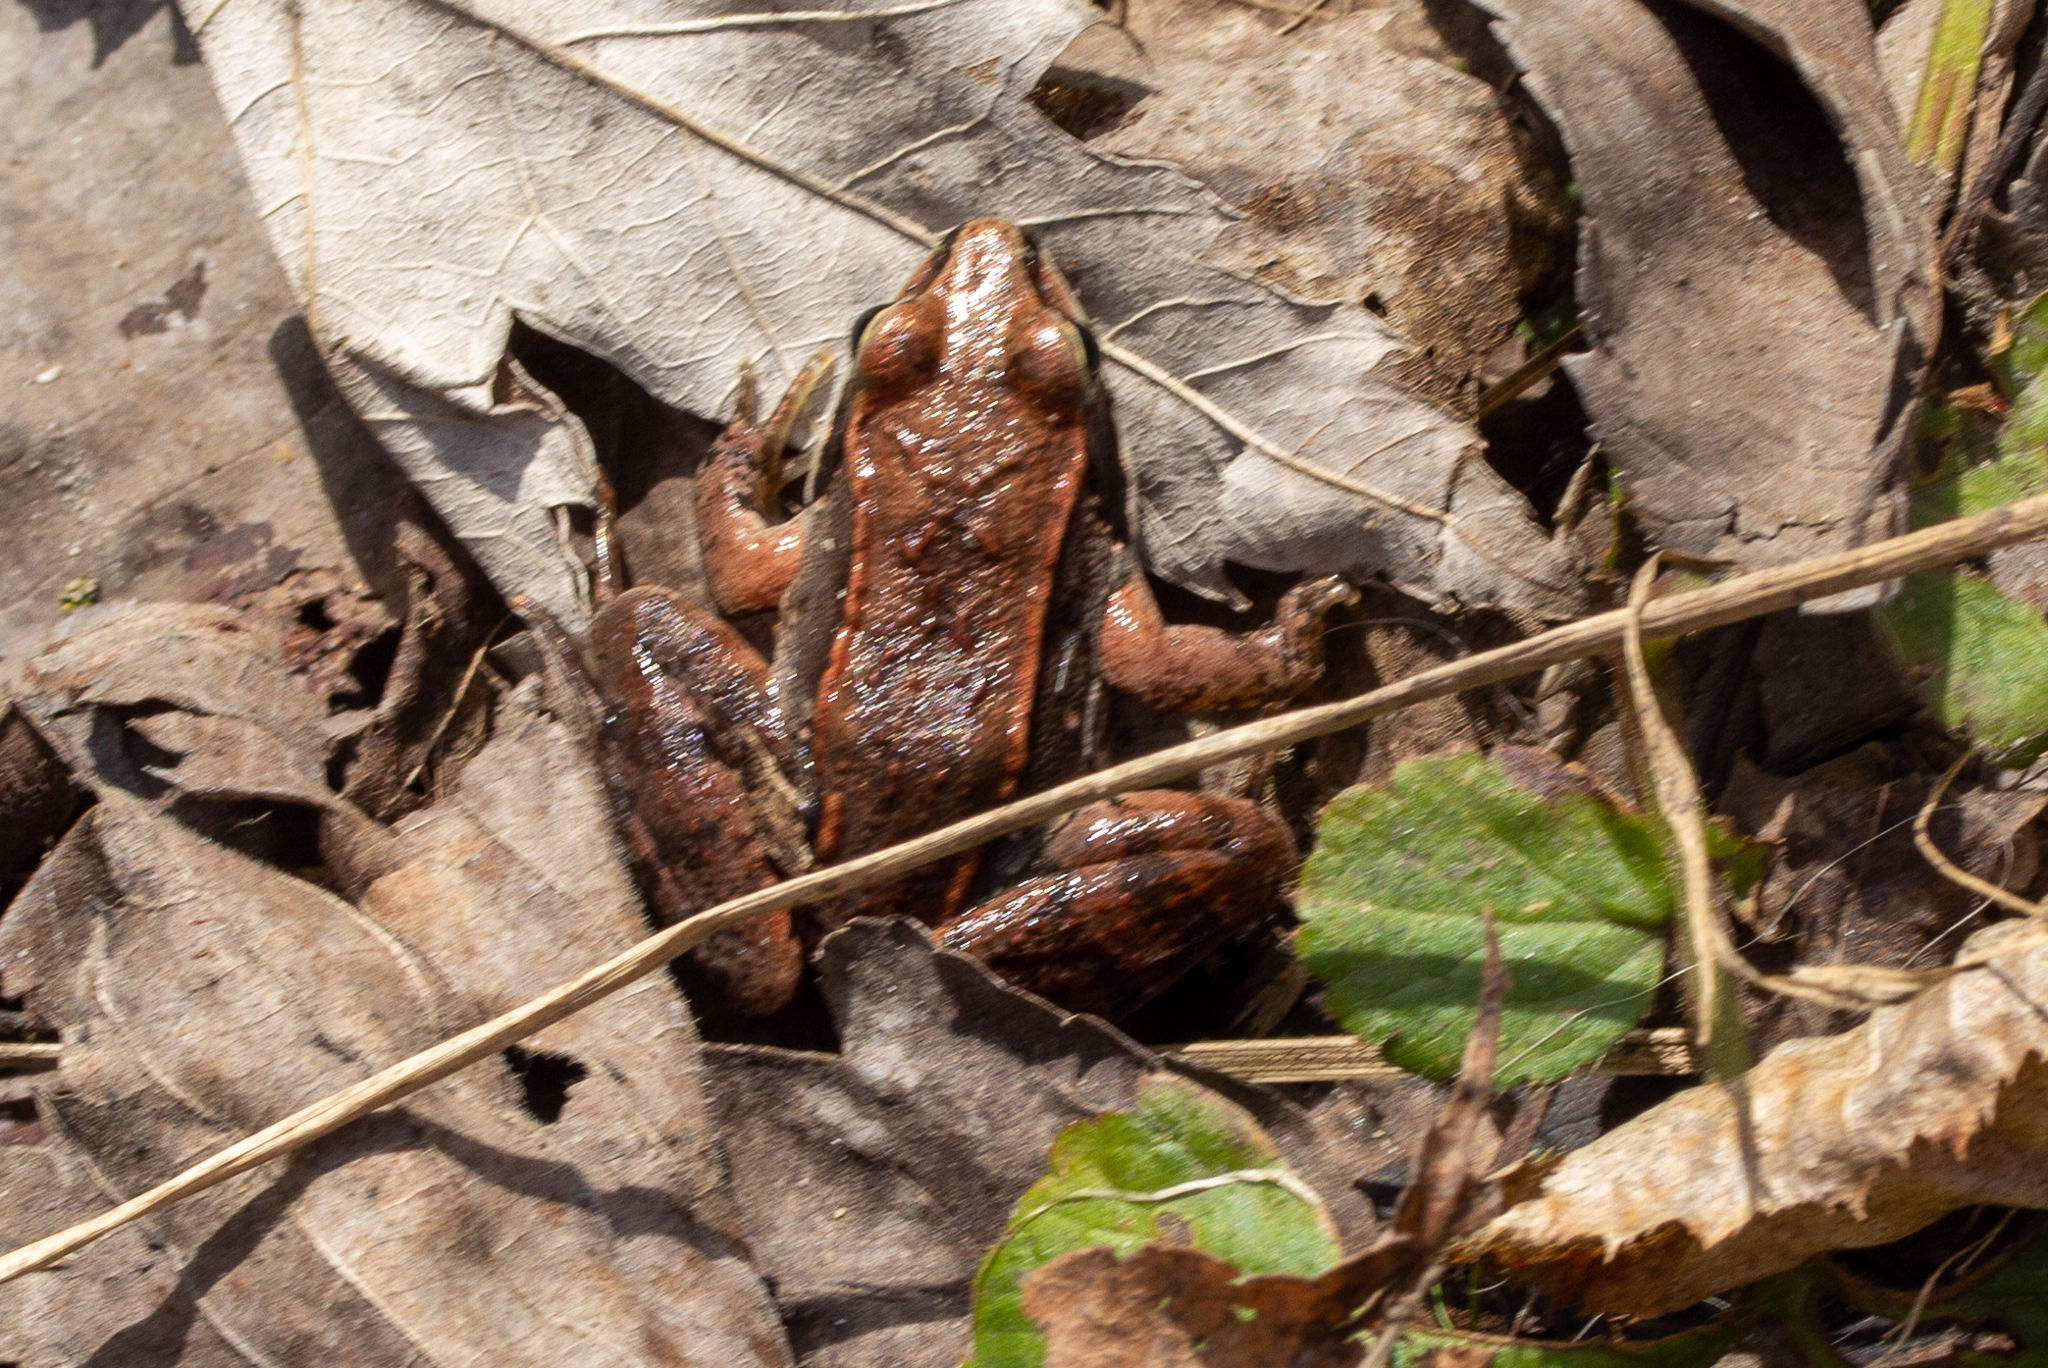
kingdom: Animalia
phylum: Chordata
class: Amphibia
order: Anura
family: Ranidae
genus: Lithobates
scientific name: Lithobates sylvaticus
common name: Wood frog
